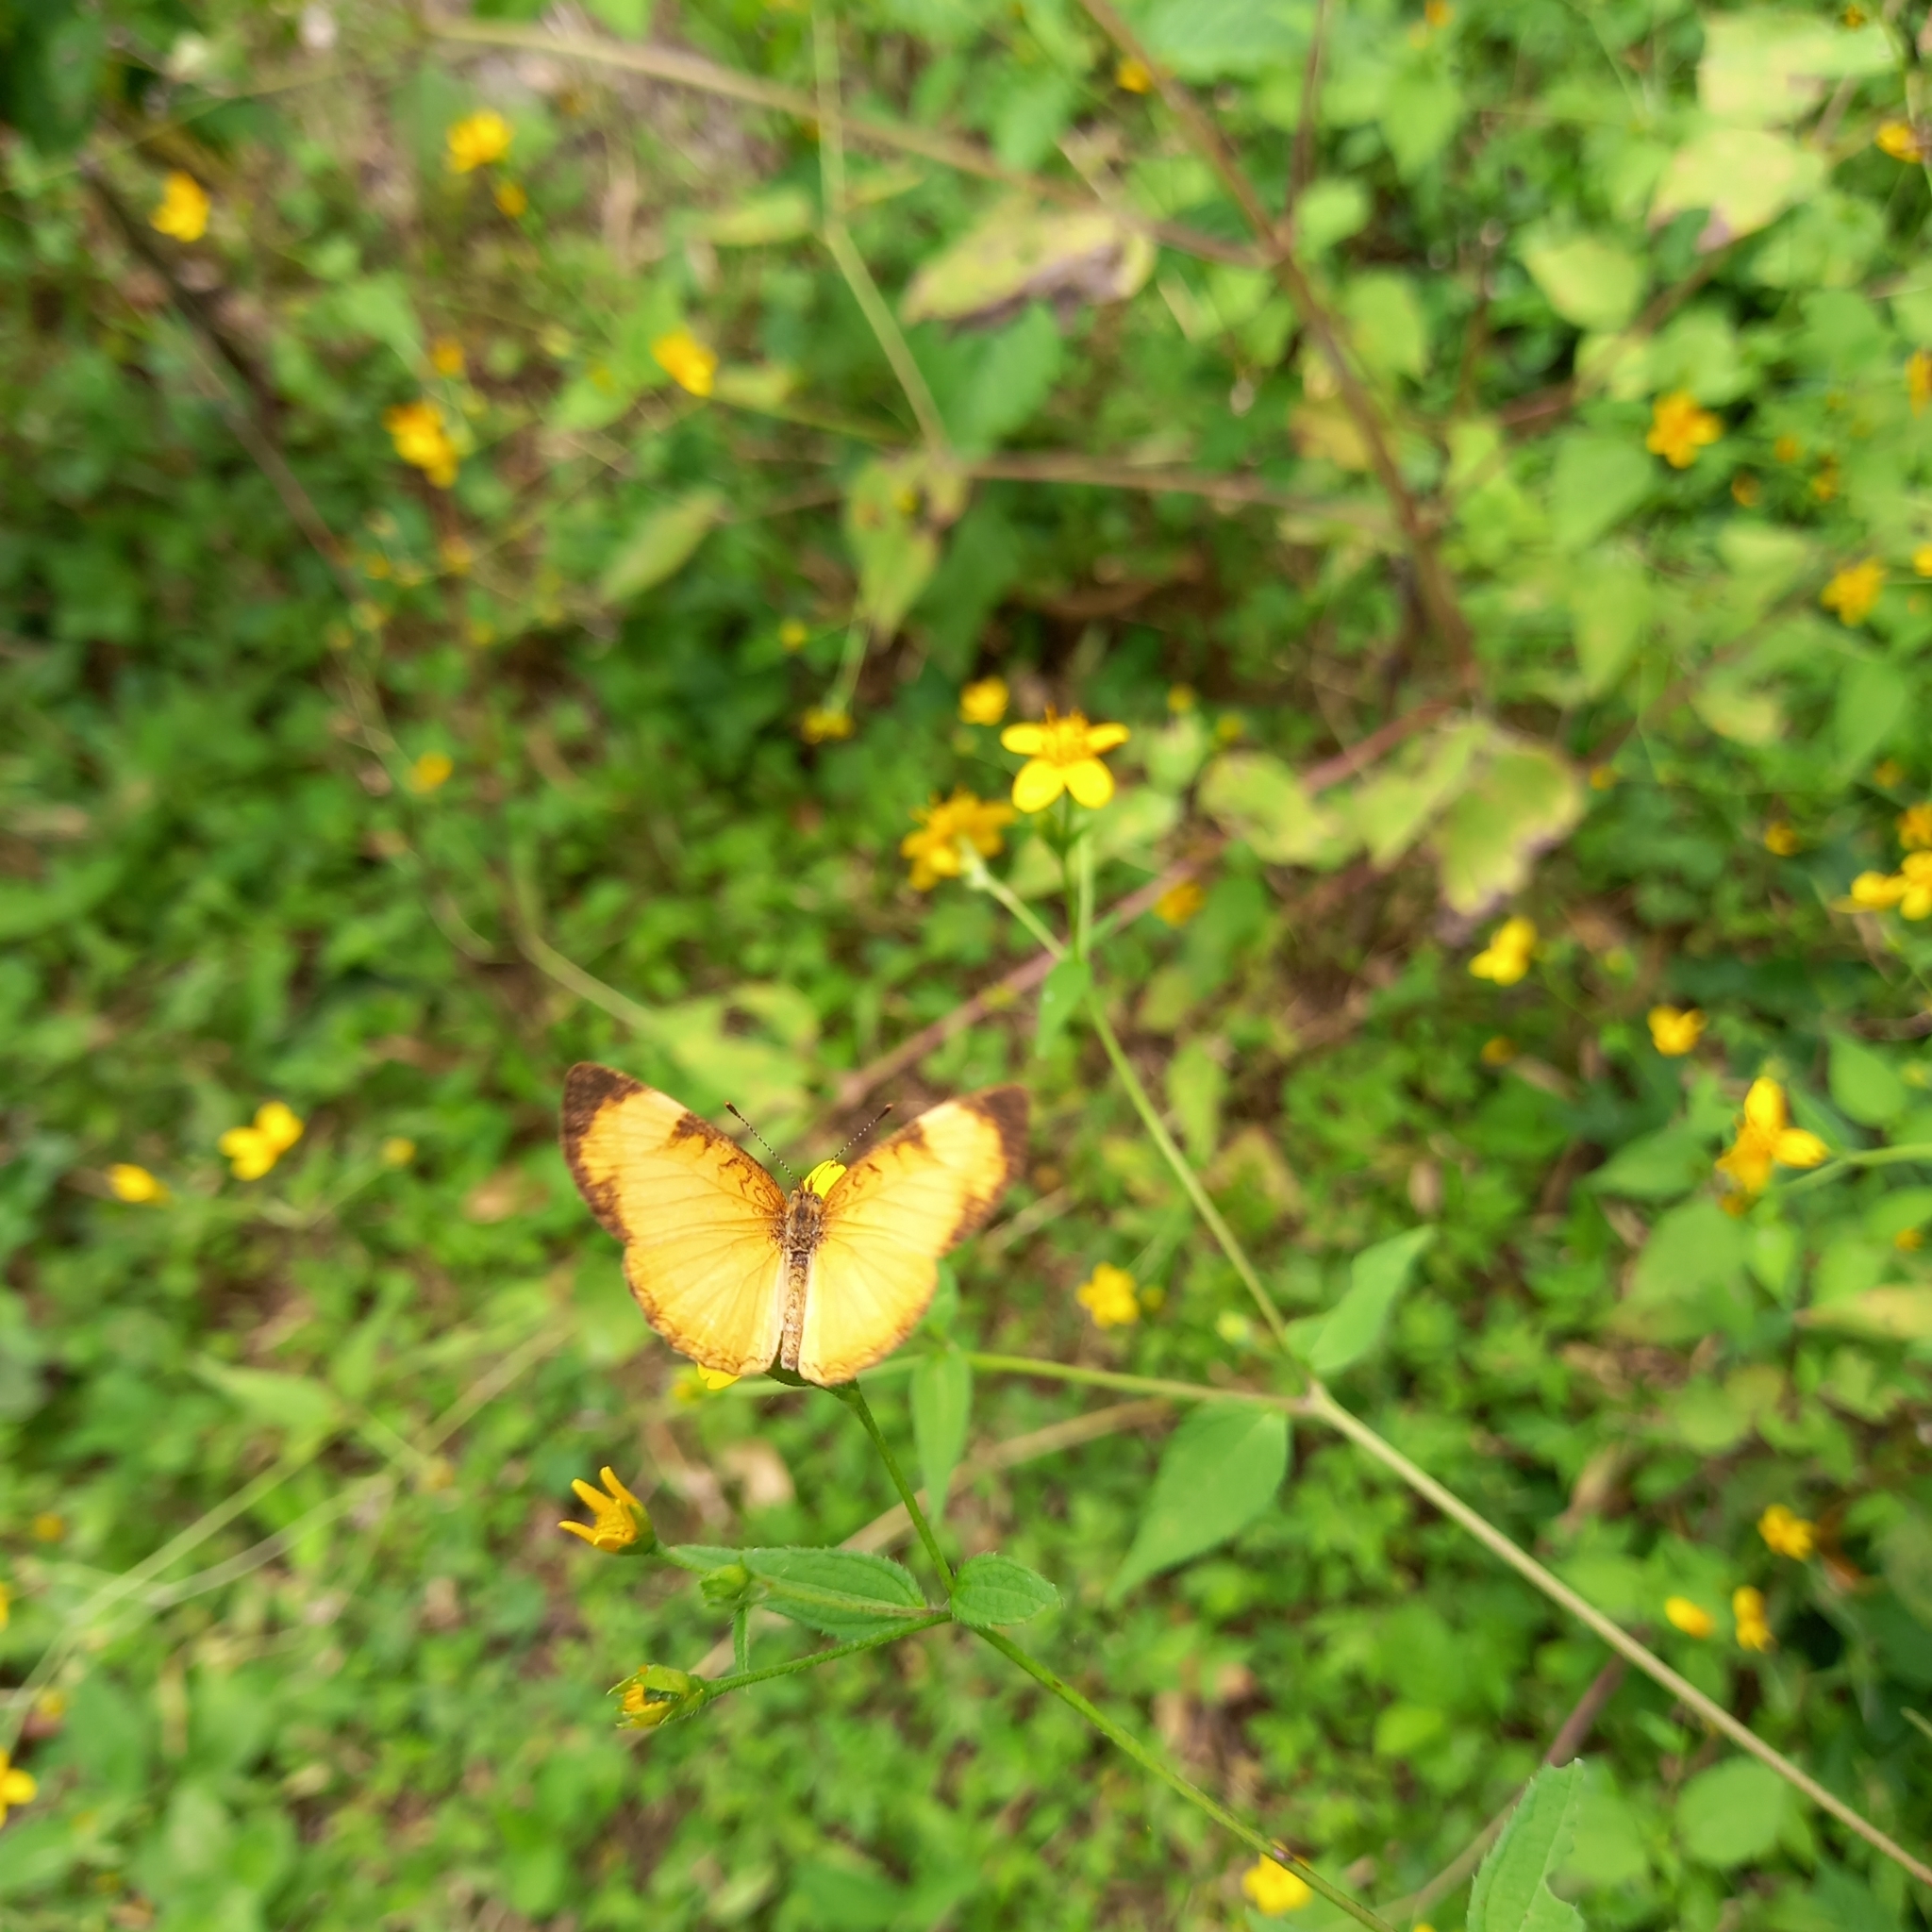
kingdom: Animalia
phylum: Arthropoda
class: Insecta
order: Lepidoptera
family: Nymphalidae
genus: Tegosa
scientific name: Tegosa anieta
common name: Black-bordered crescent
